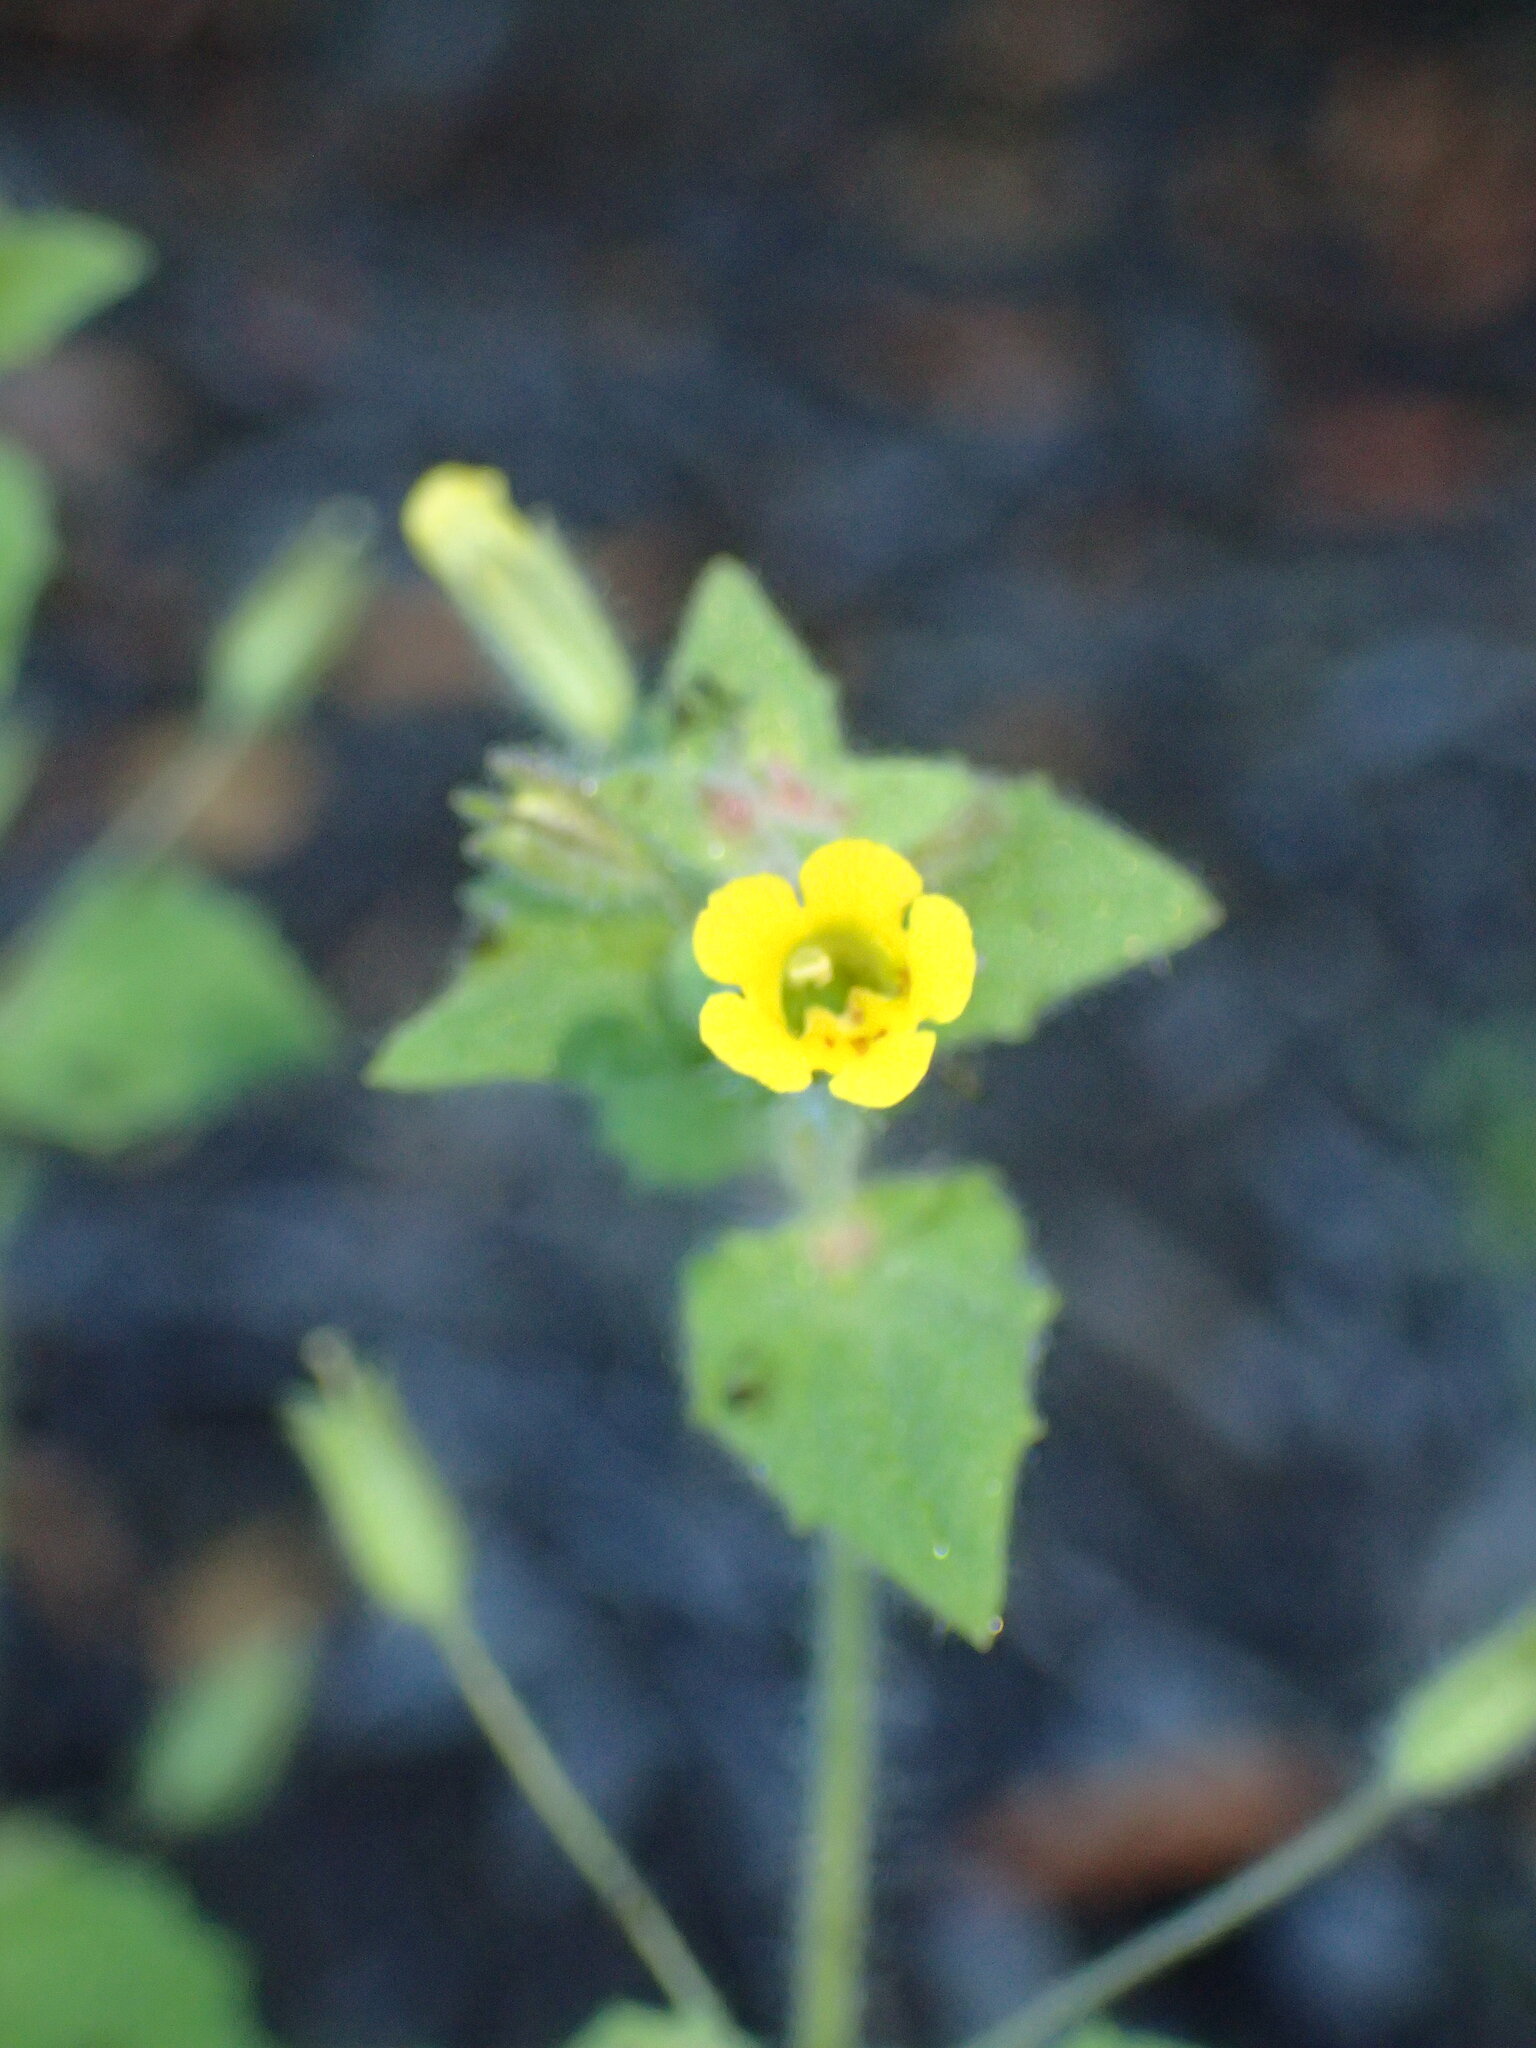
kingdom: Plantae
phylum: Tracheophyta
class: Magnoliopsida
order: Lamiales
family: Phrymaceae
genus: Erythranthe
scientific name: Erythranthe floribunda
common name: Floriferous monkeyflower
